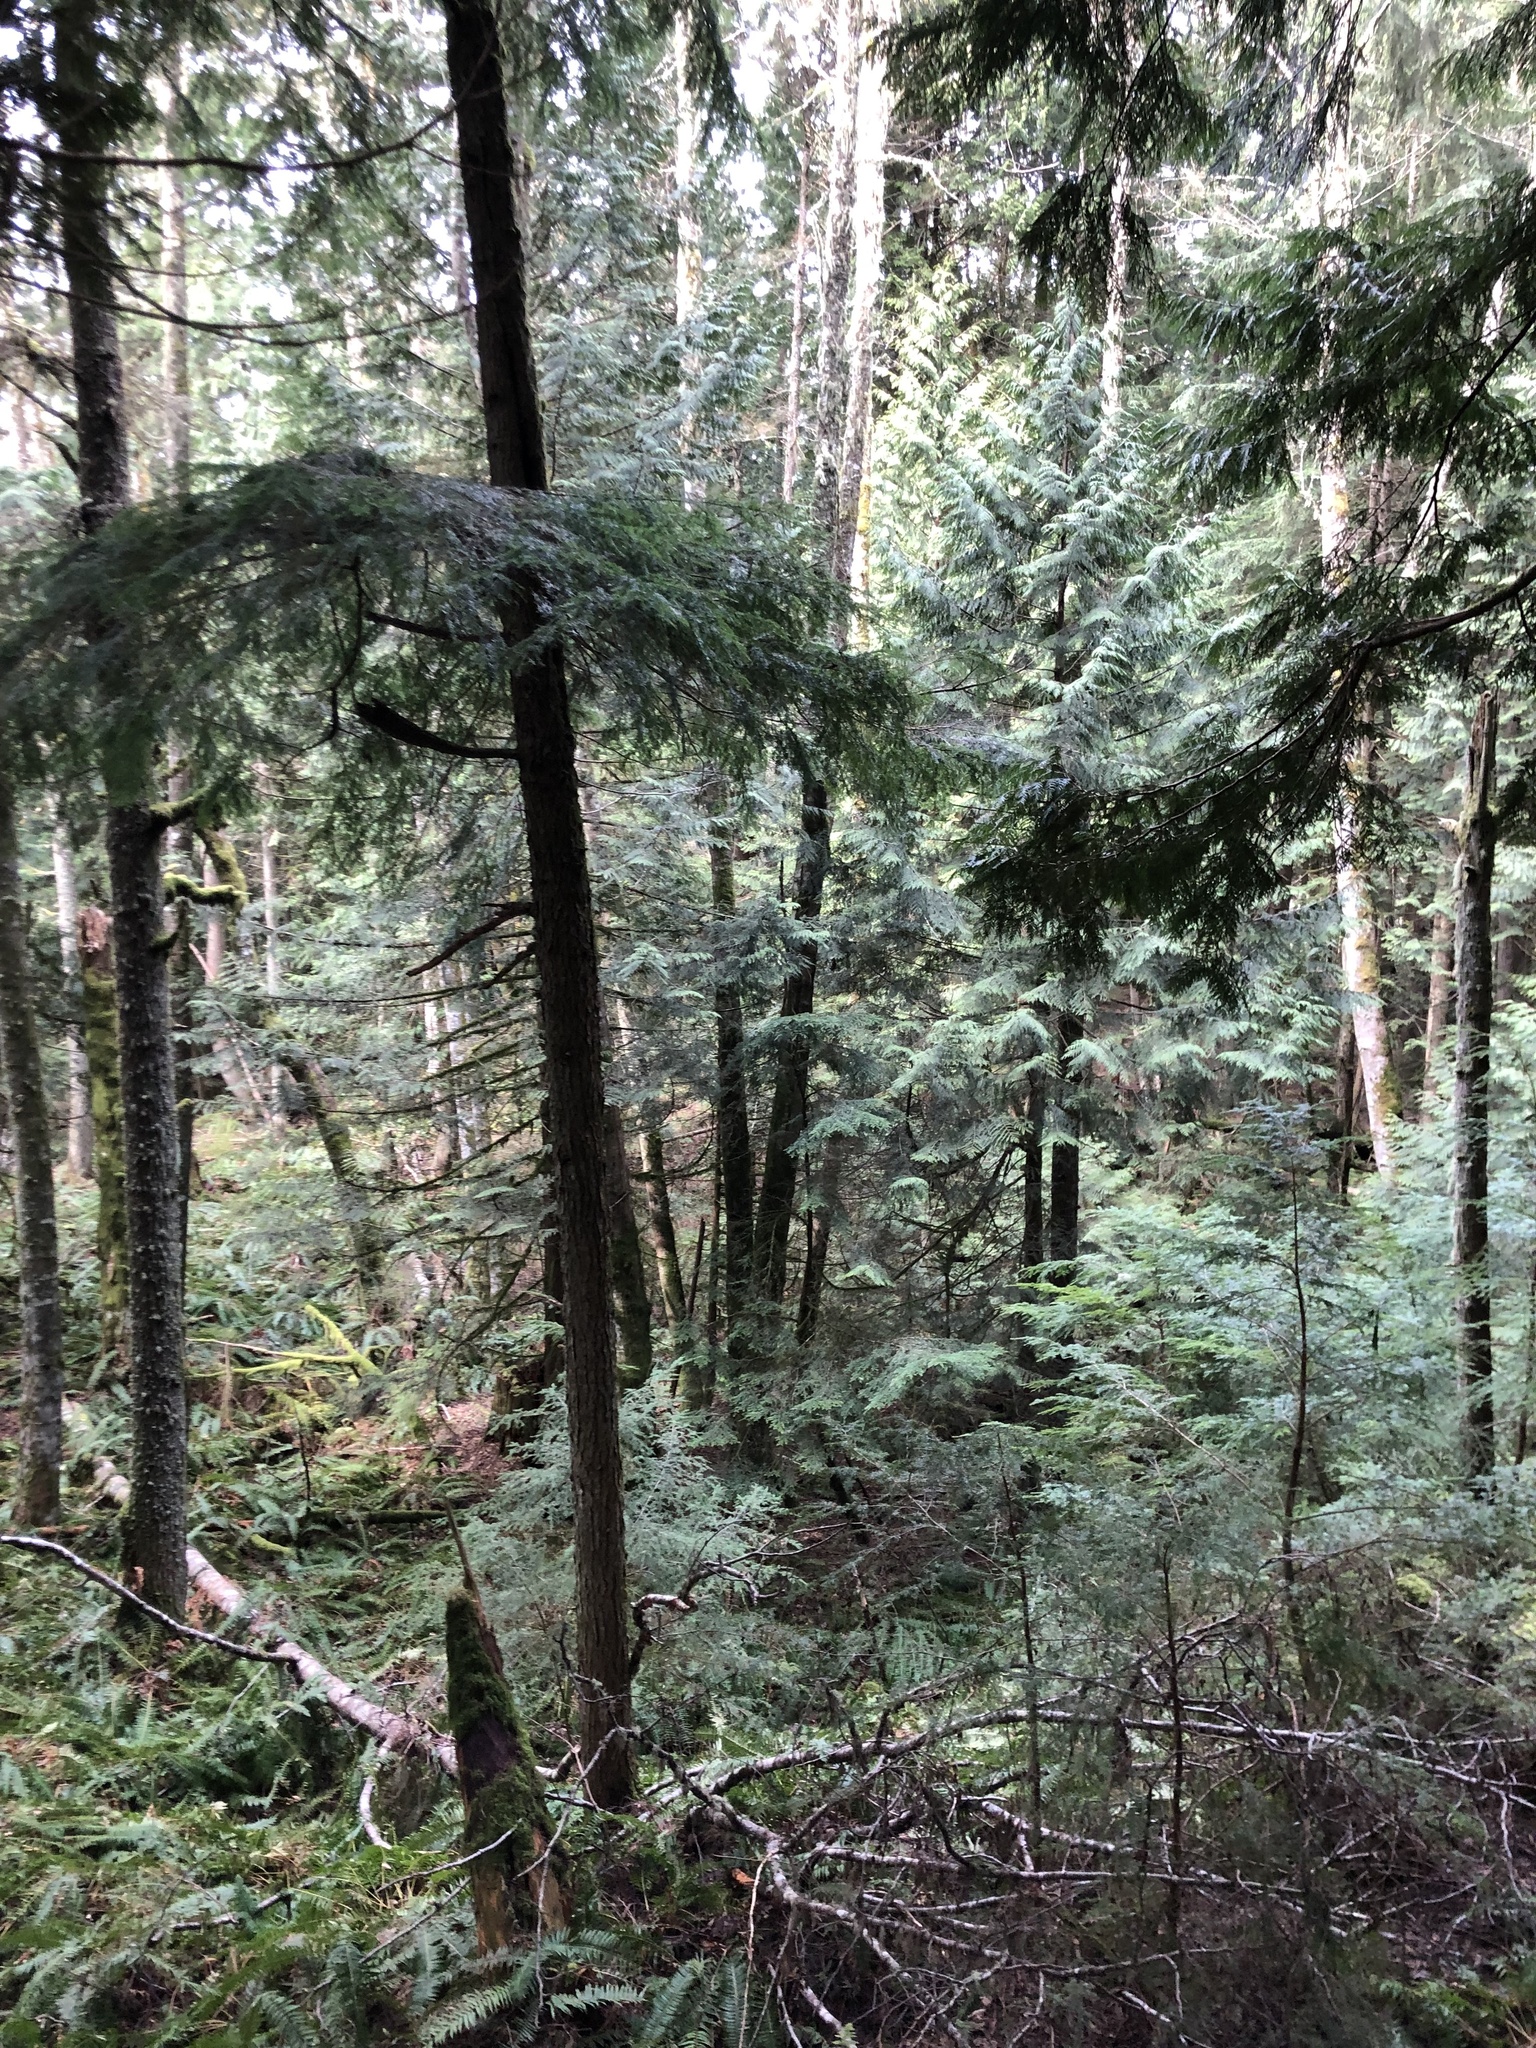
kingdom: Plantae
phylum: Tracheophyta
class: Pinopsida
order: Pinales
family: Cupressaceae
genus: Thuja
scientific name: Thuja plicata
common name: Western red-cedar
